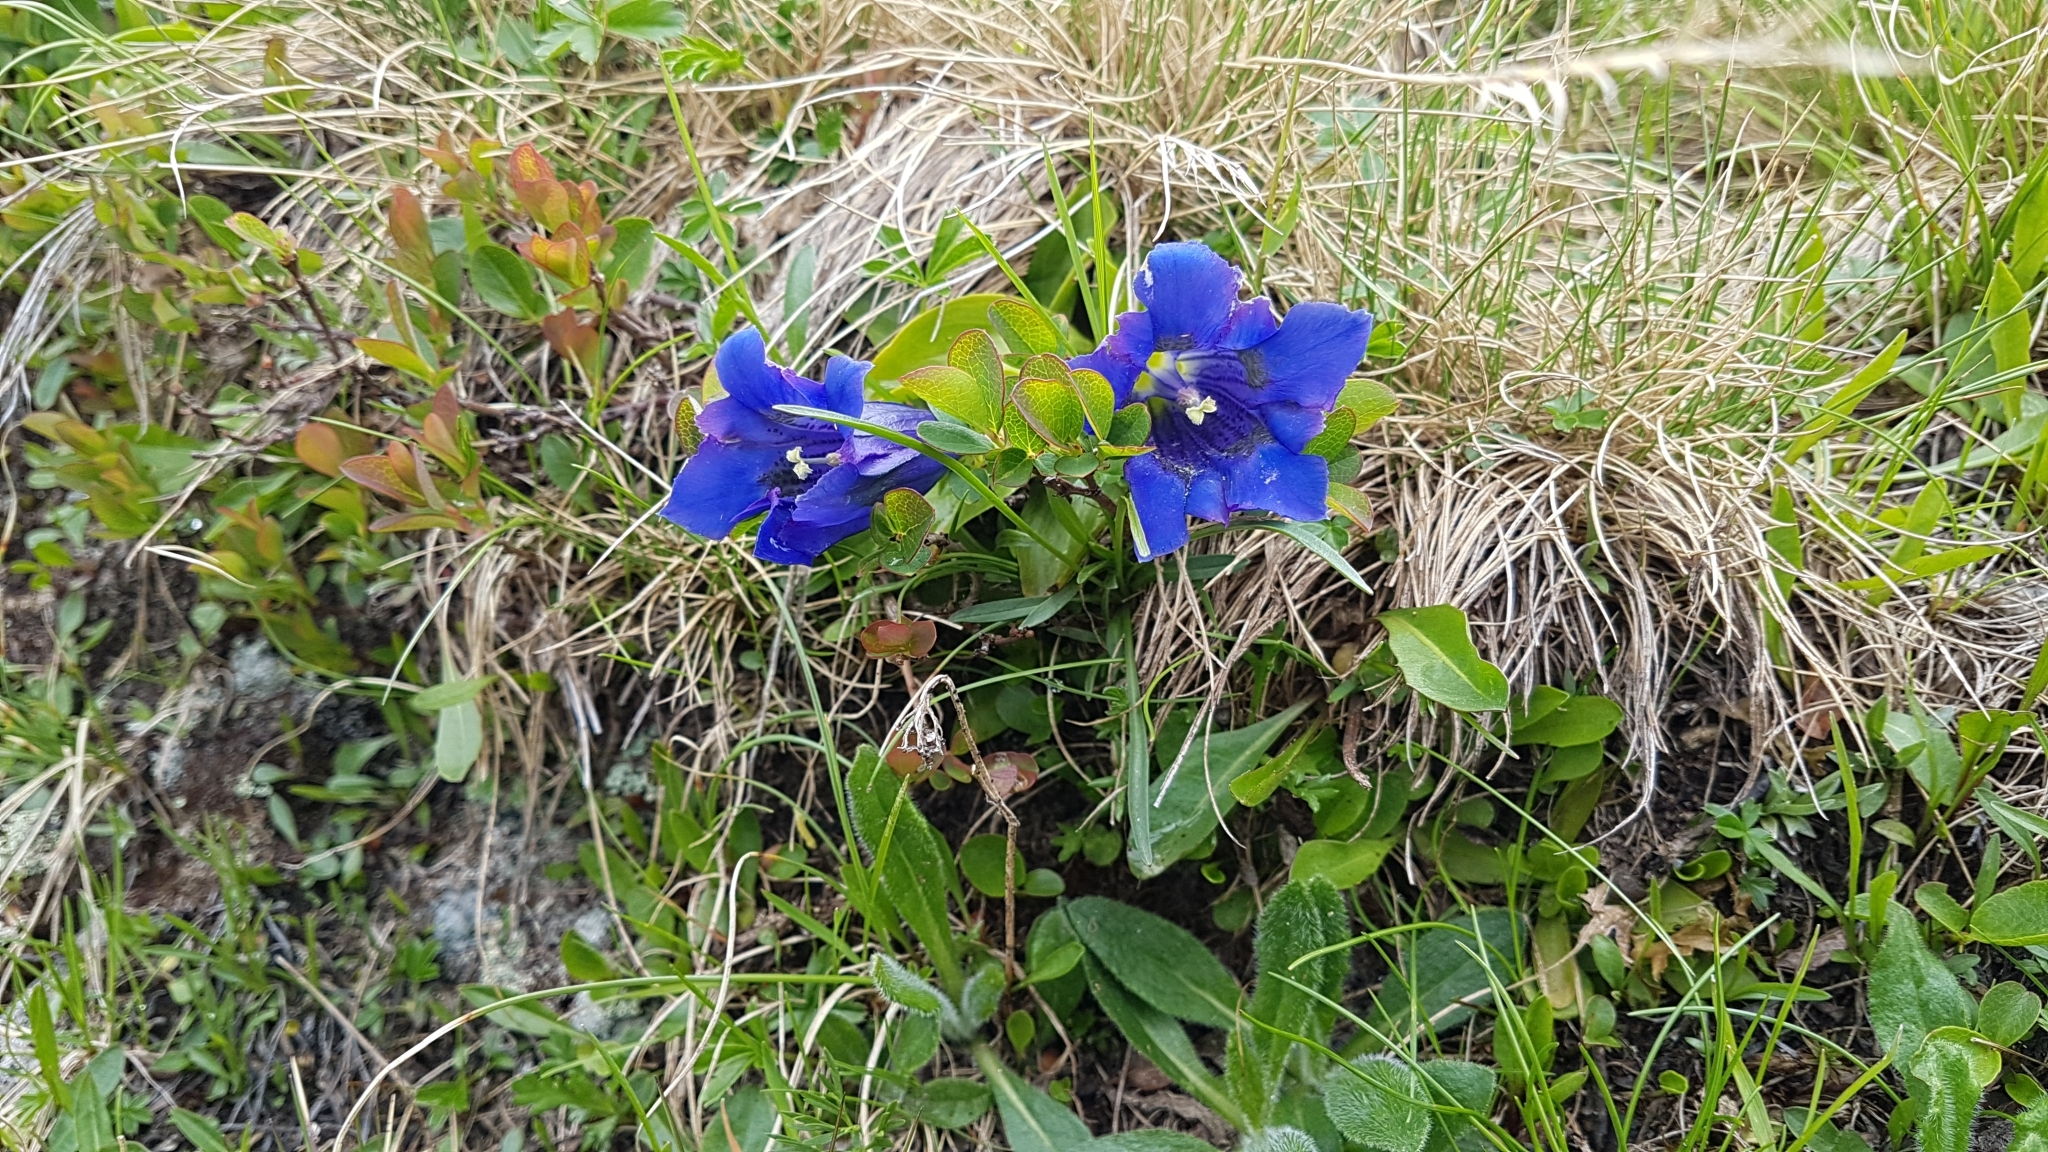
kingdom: Plantae
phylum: Tracheophyta
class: Magnoliopsida
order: Gentianales
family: Gentianaceae
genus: Gentiana
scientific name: Gentiana acaulis
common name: Trumpet gentian
